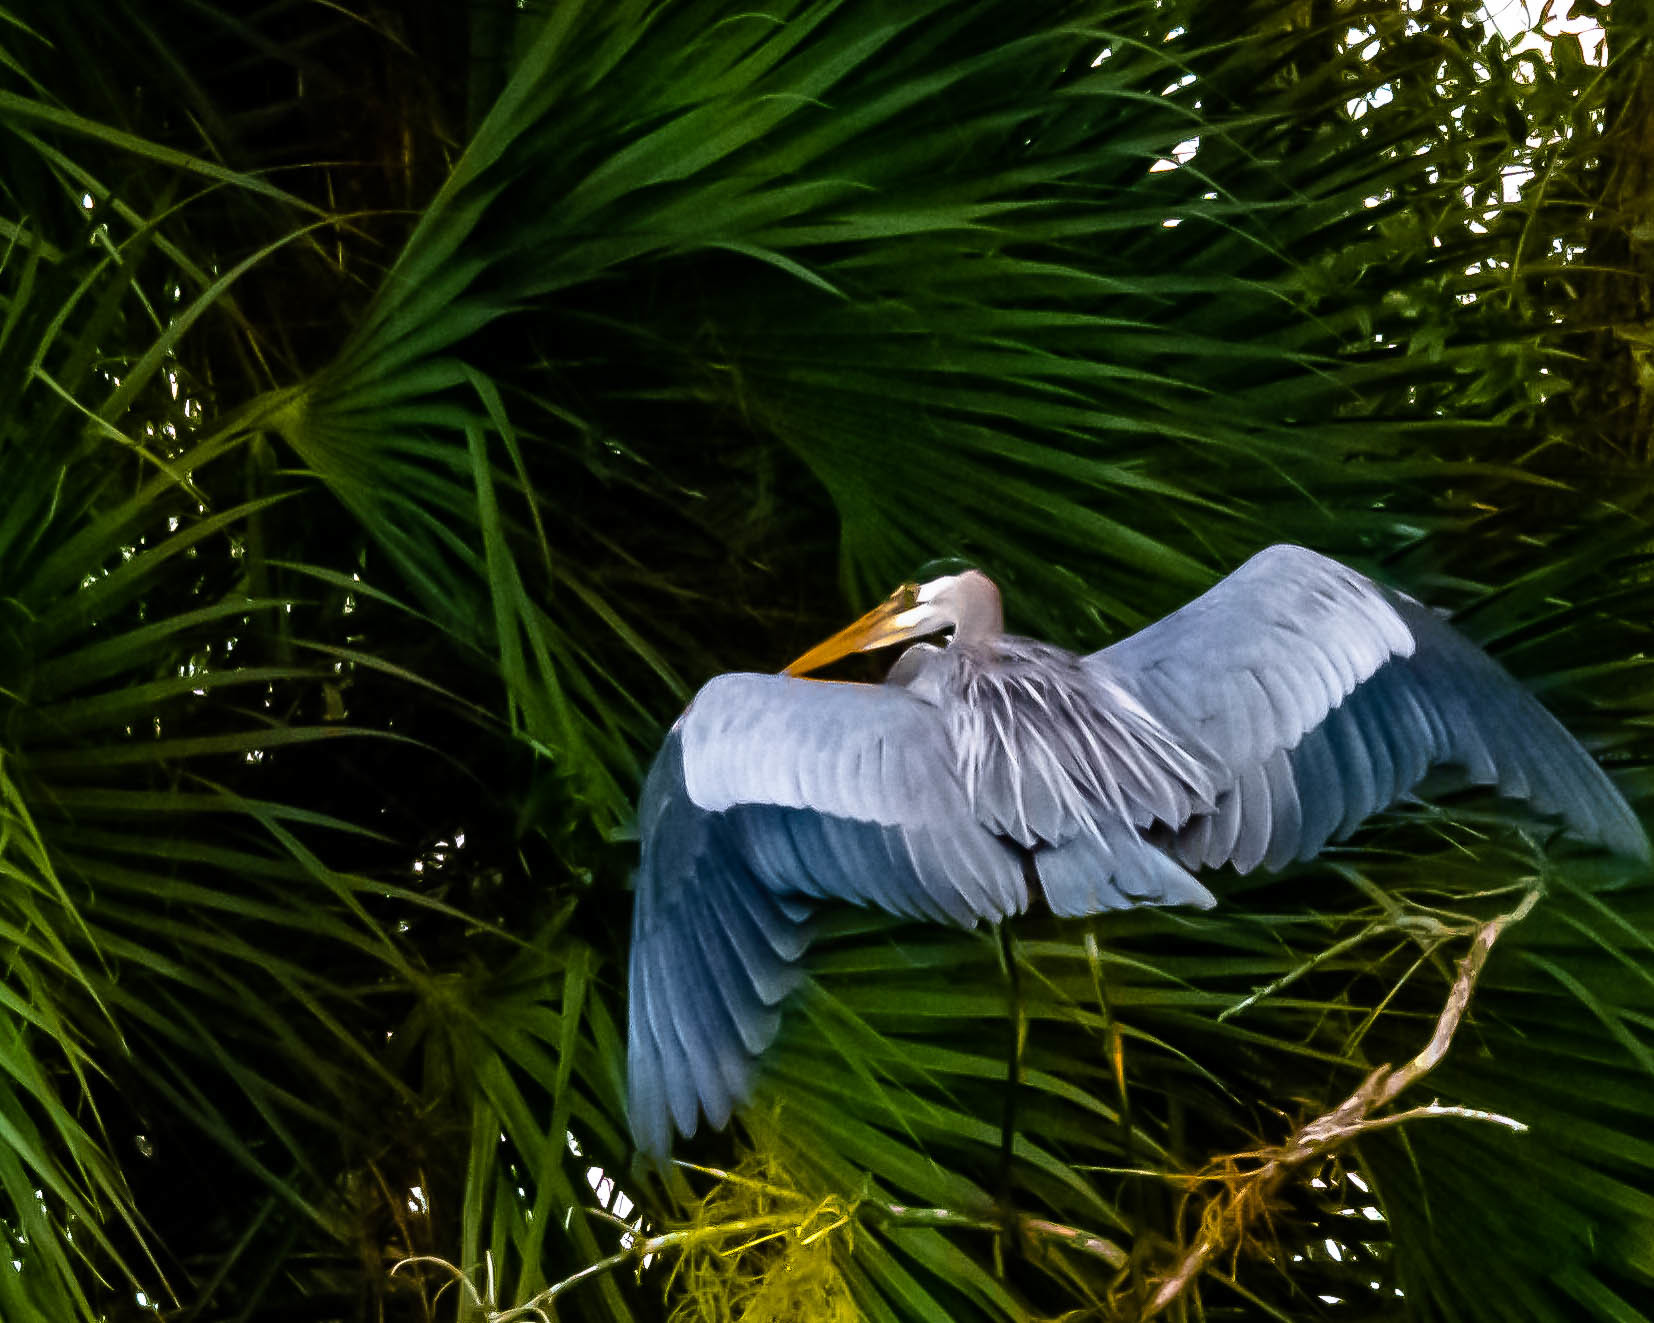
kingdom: Animalia
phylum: Chordata
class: Aves
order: Pelecaniformes
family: Ardeidae
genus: Ardea
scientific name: Ardea herodias
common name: Great blue heron
